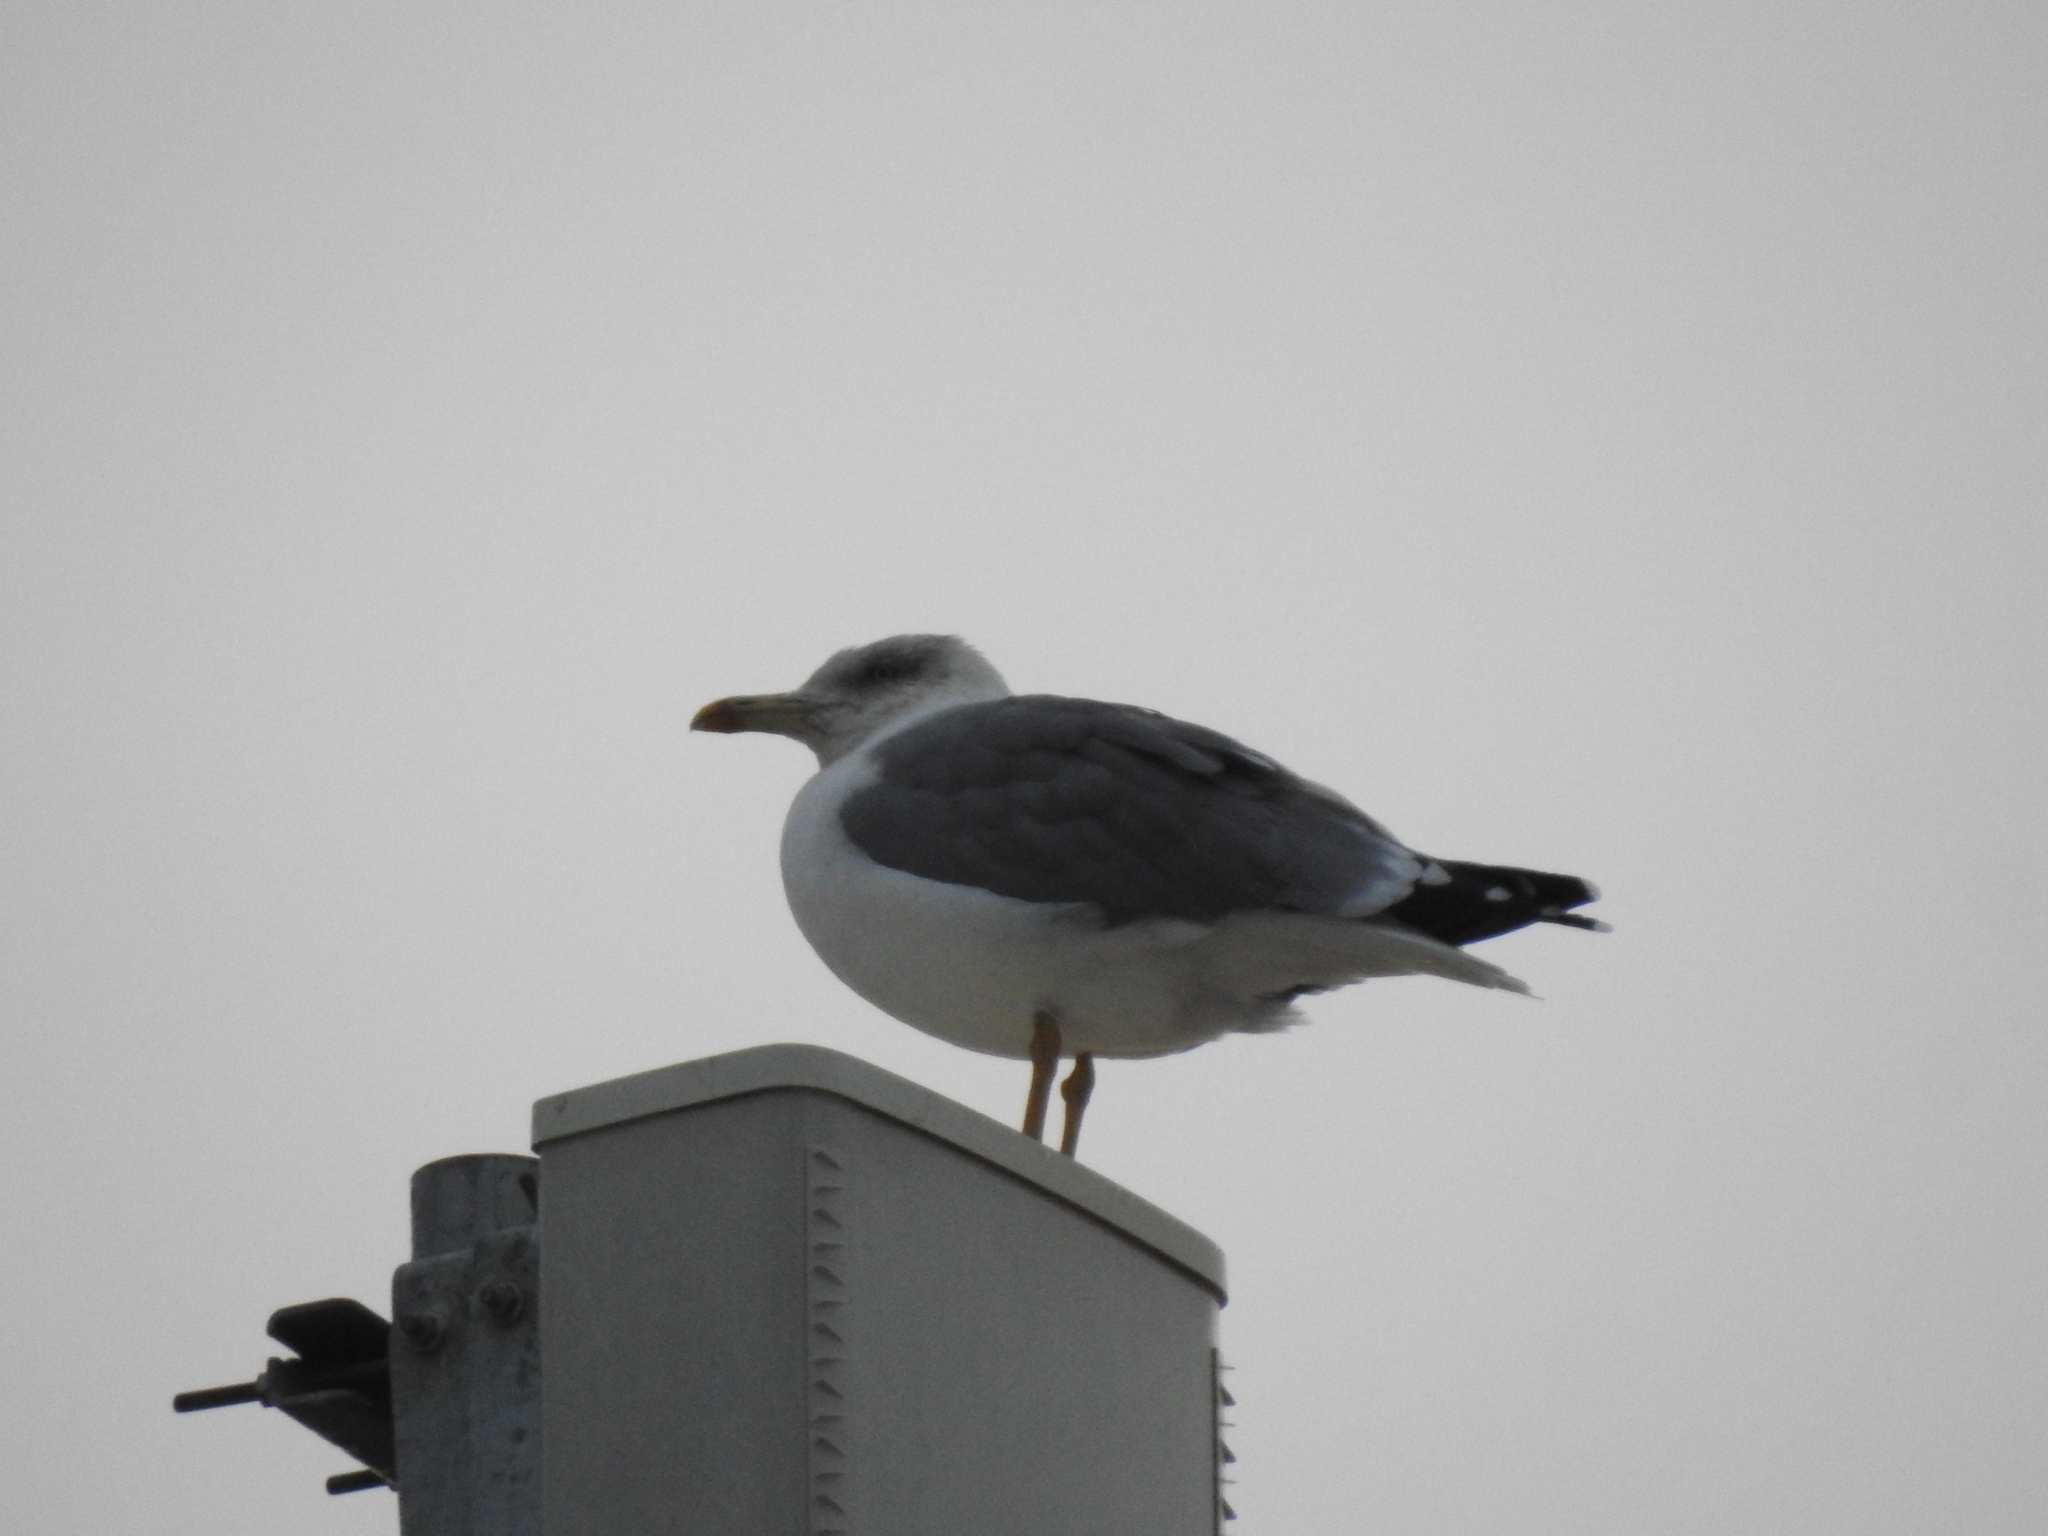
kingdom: Animalia
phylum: Chordata
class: Aves
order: Charadriiformes
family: Laridae
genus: Larus
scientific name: Larus michahellis
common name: Yellow-legged gull
